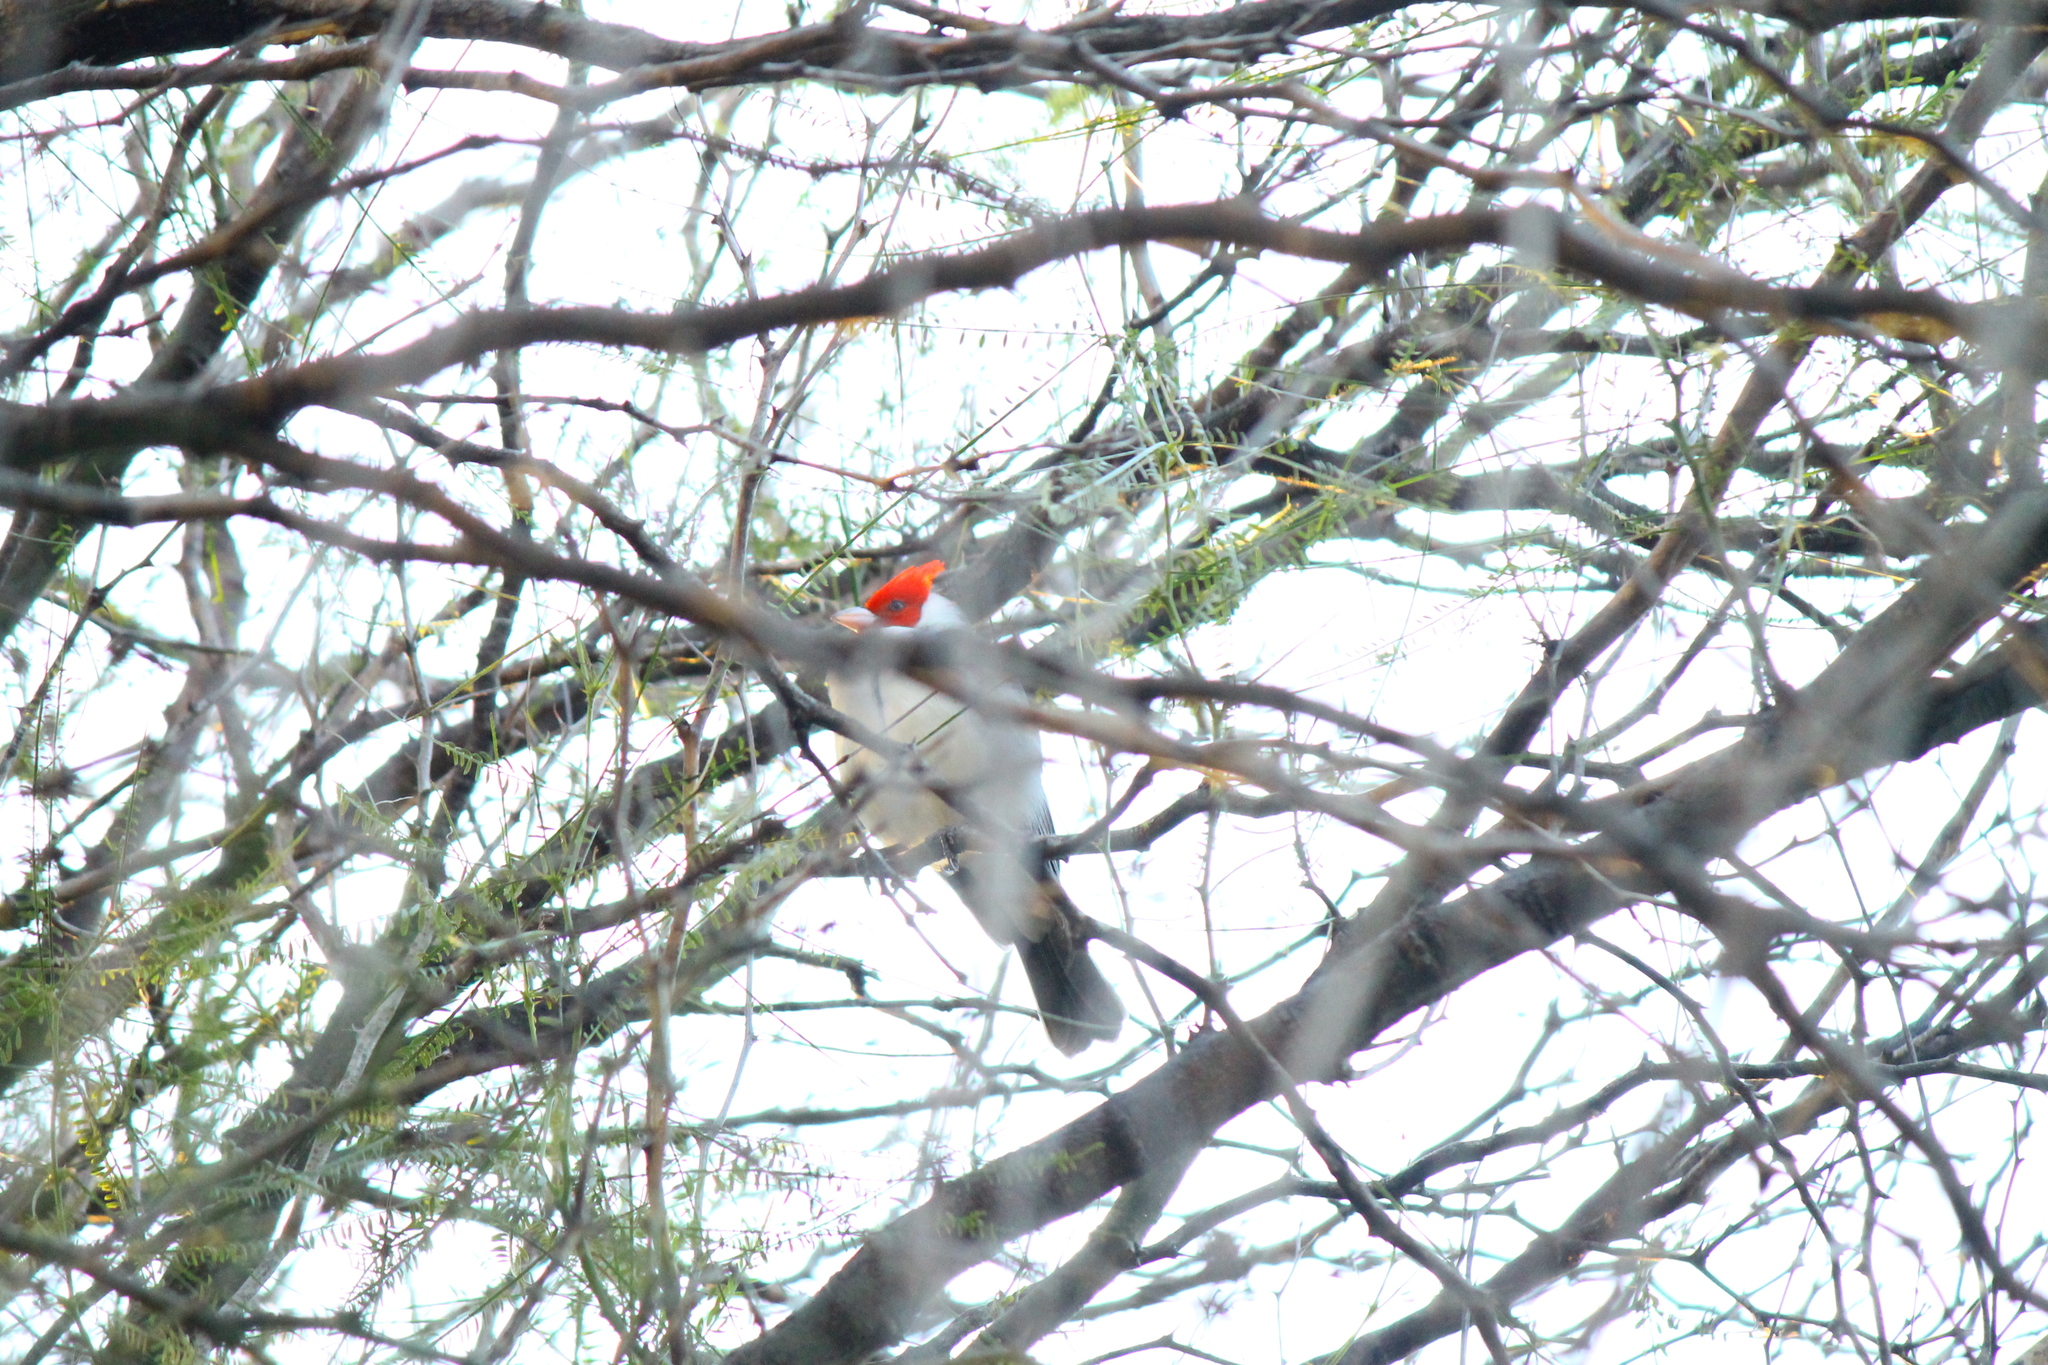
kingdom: Animalia
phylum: Chordata
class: Aves
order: Passeriformes
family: Thraupidae
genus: Paroaria
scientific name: Paroaria coronata
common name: Red-crested cardinal
